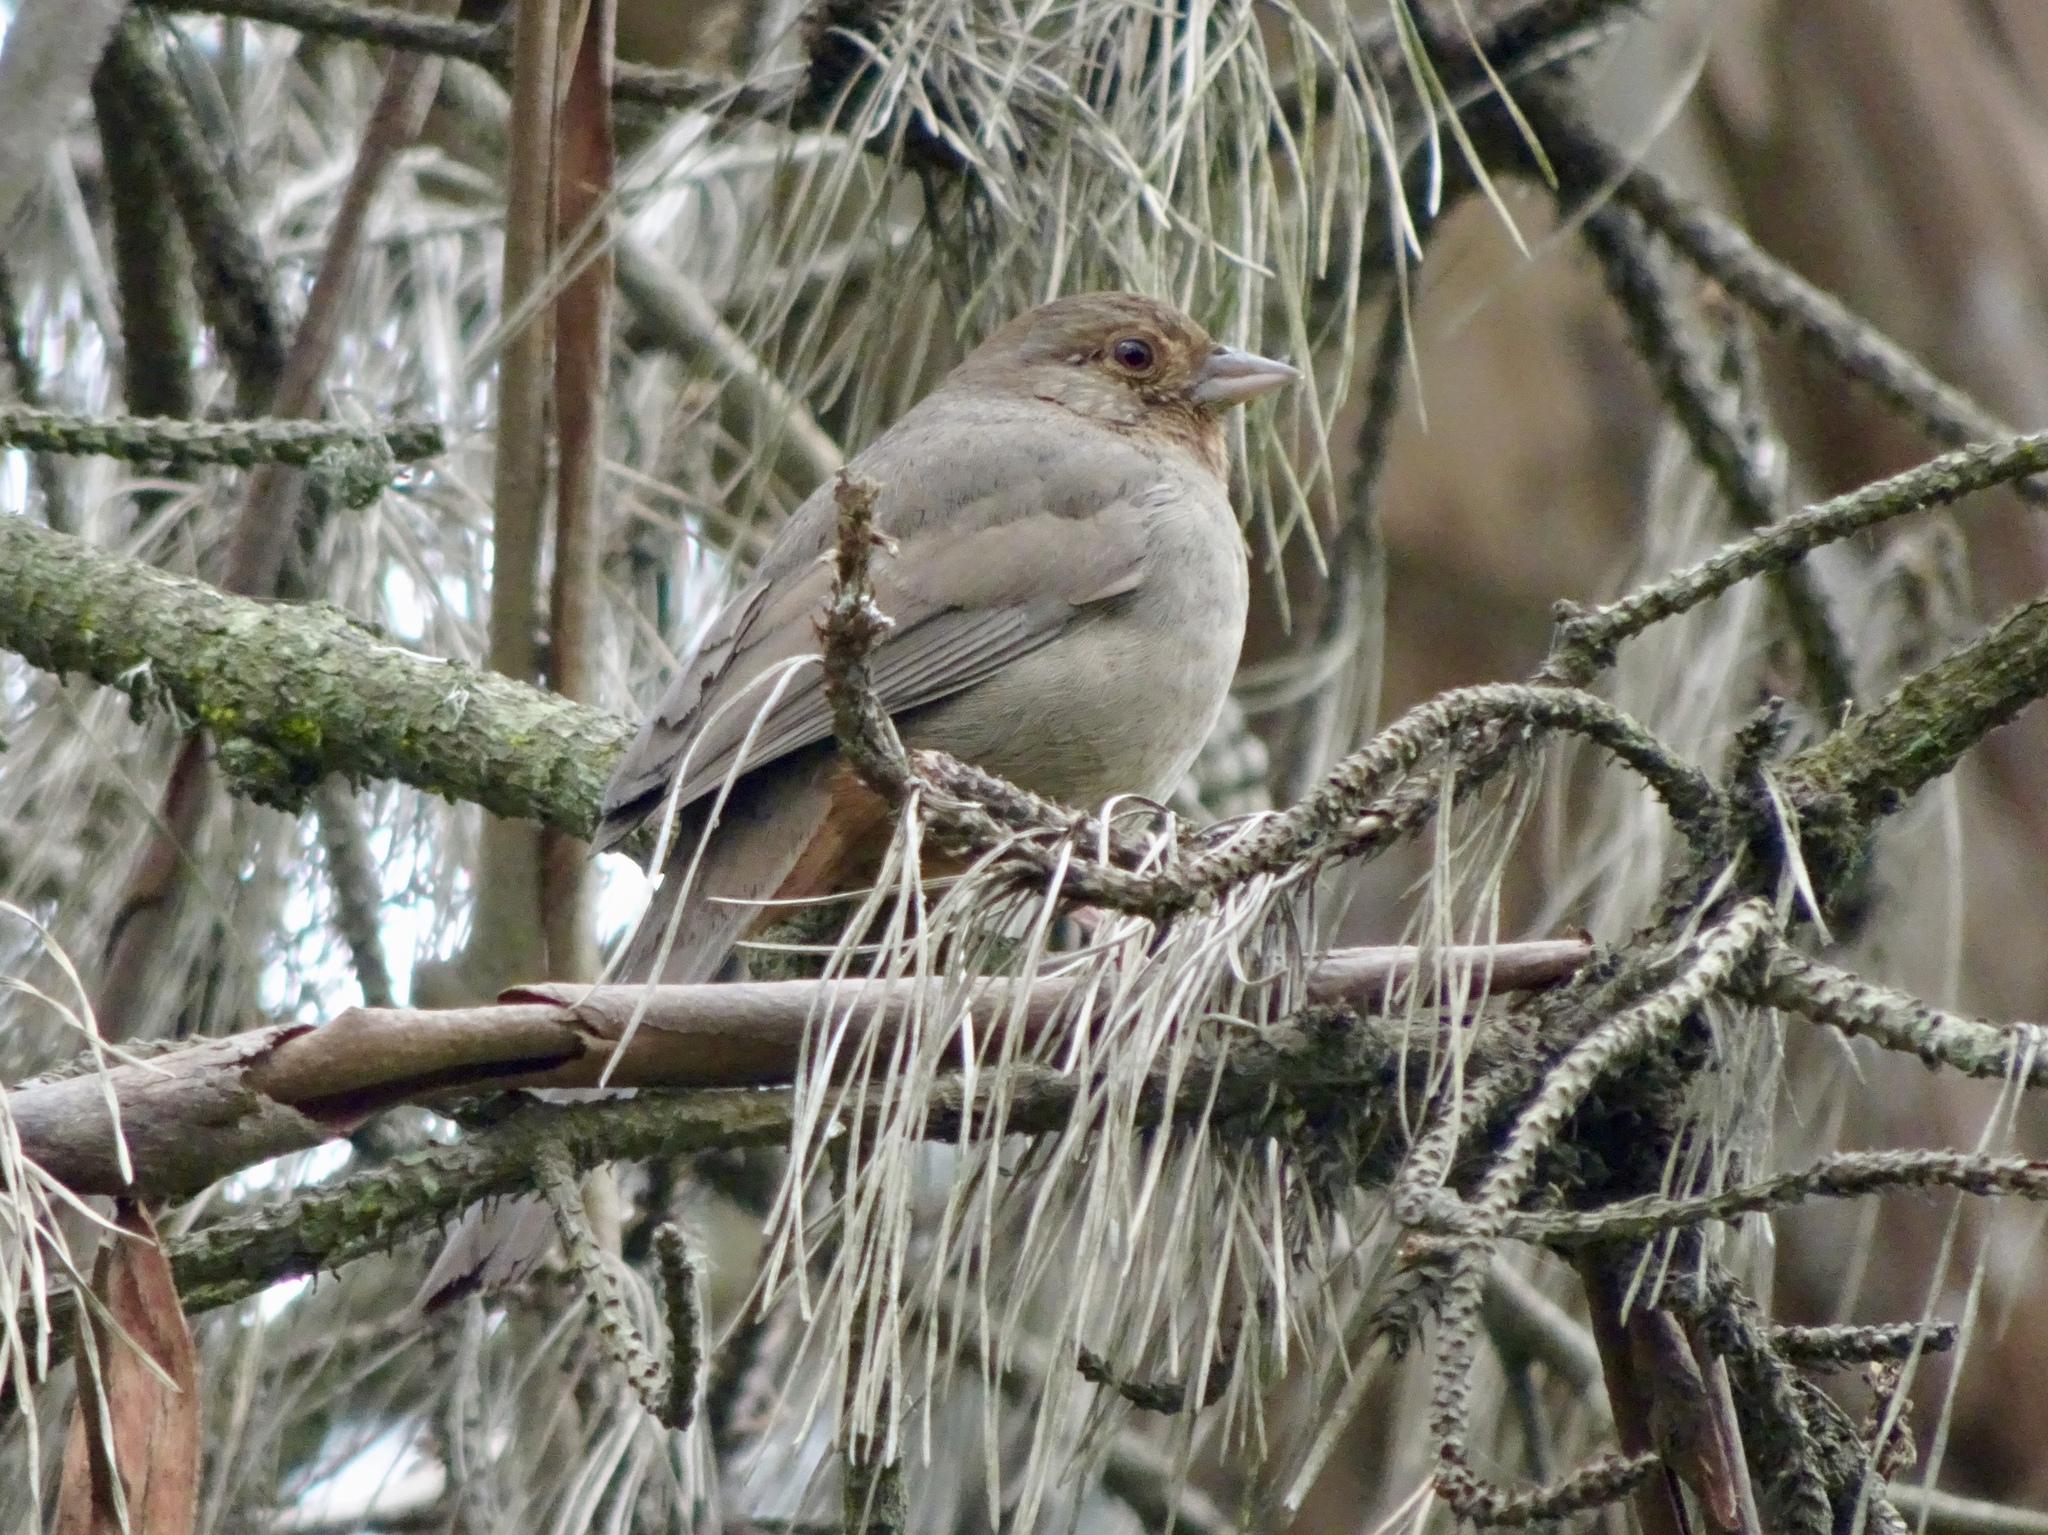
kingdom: Animalia
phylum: Chordata
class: Aves
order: Passeriformes
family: Passerellidae
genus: Melozone
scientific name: Melozone crissalis
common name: California towhee
